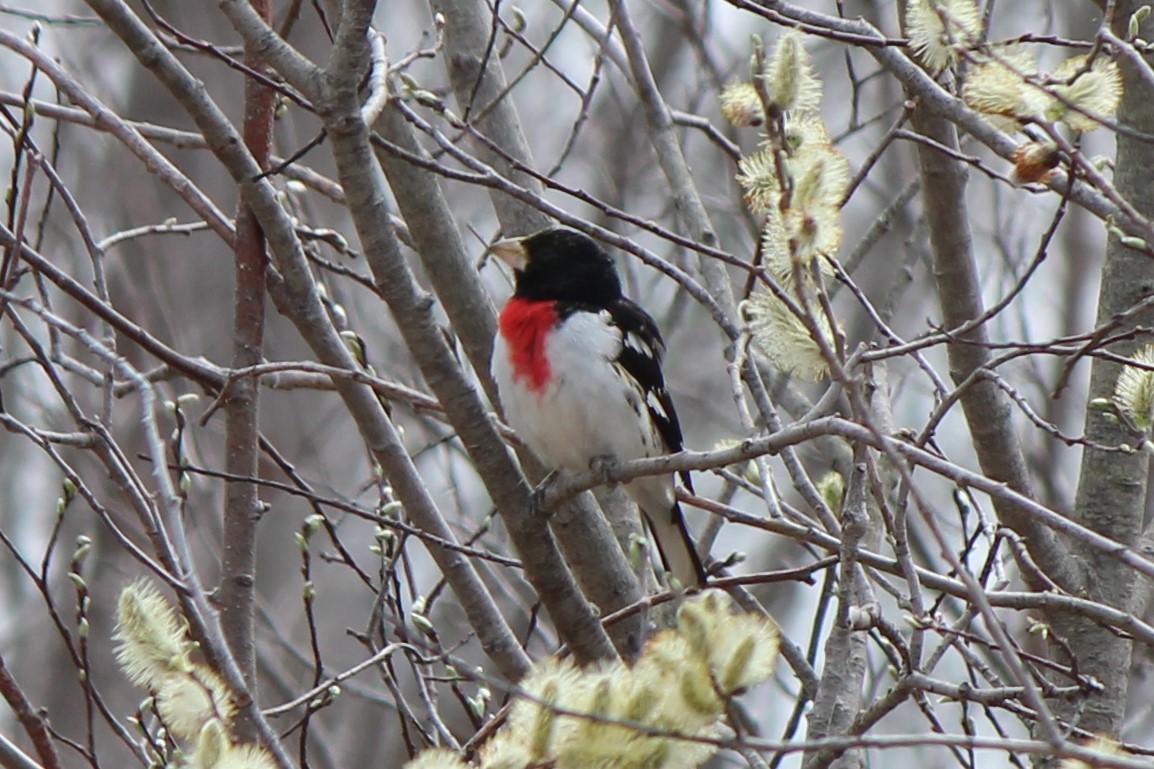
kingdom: Animalia
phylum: Chordata
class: Aves
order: Passeriformes
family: Cardinalidae
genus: Pheucticus
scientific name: Pheucticus ludovicianus
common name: Rose-breasted grosbeak
